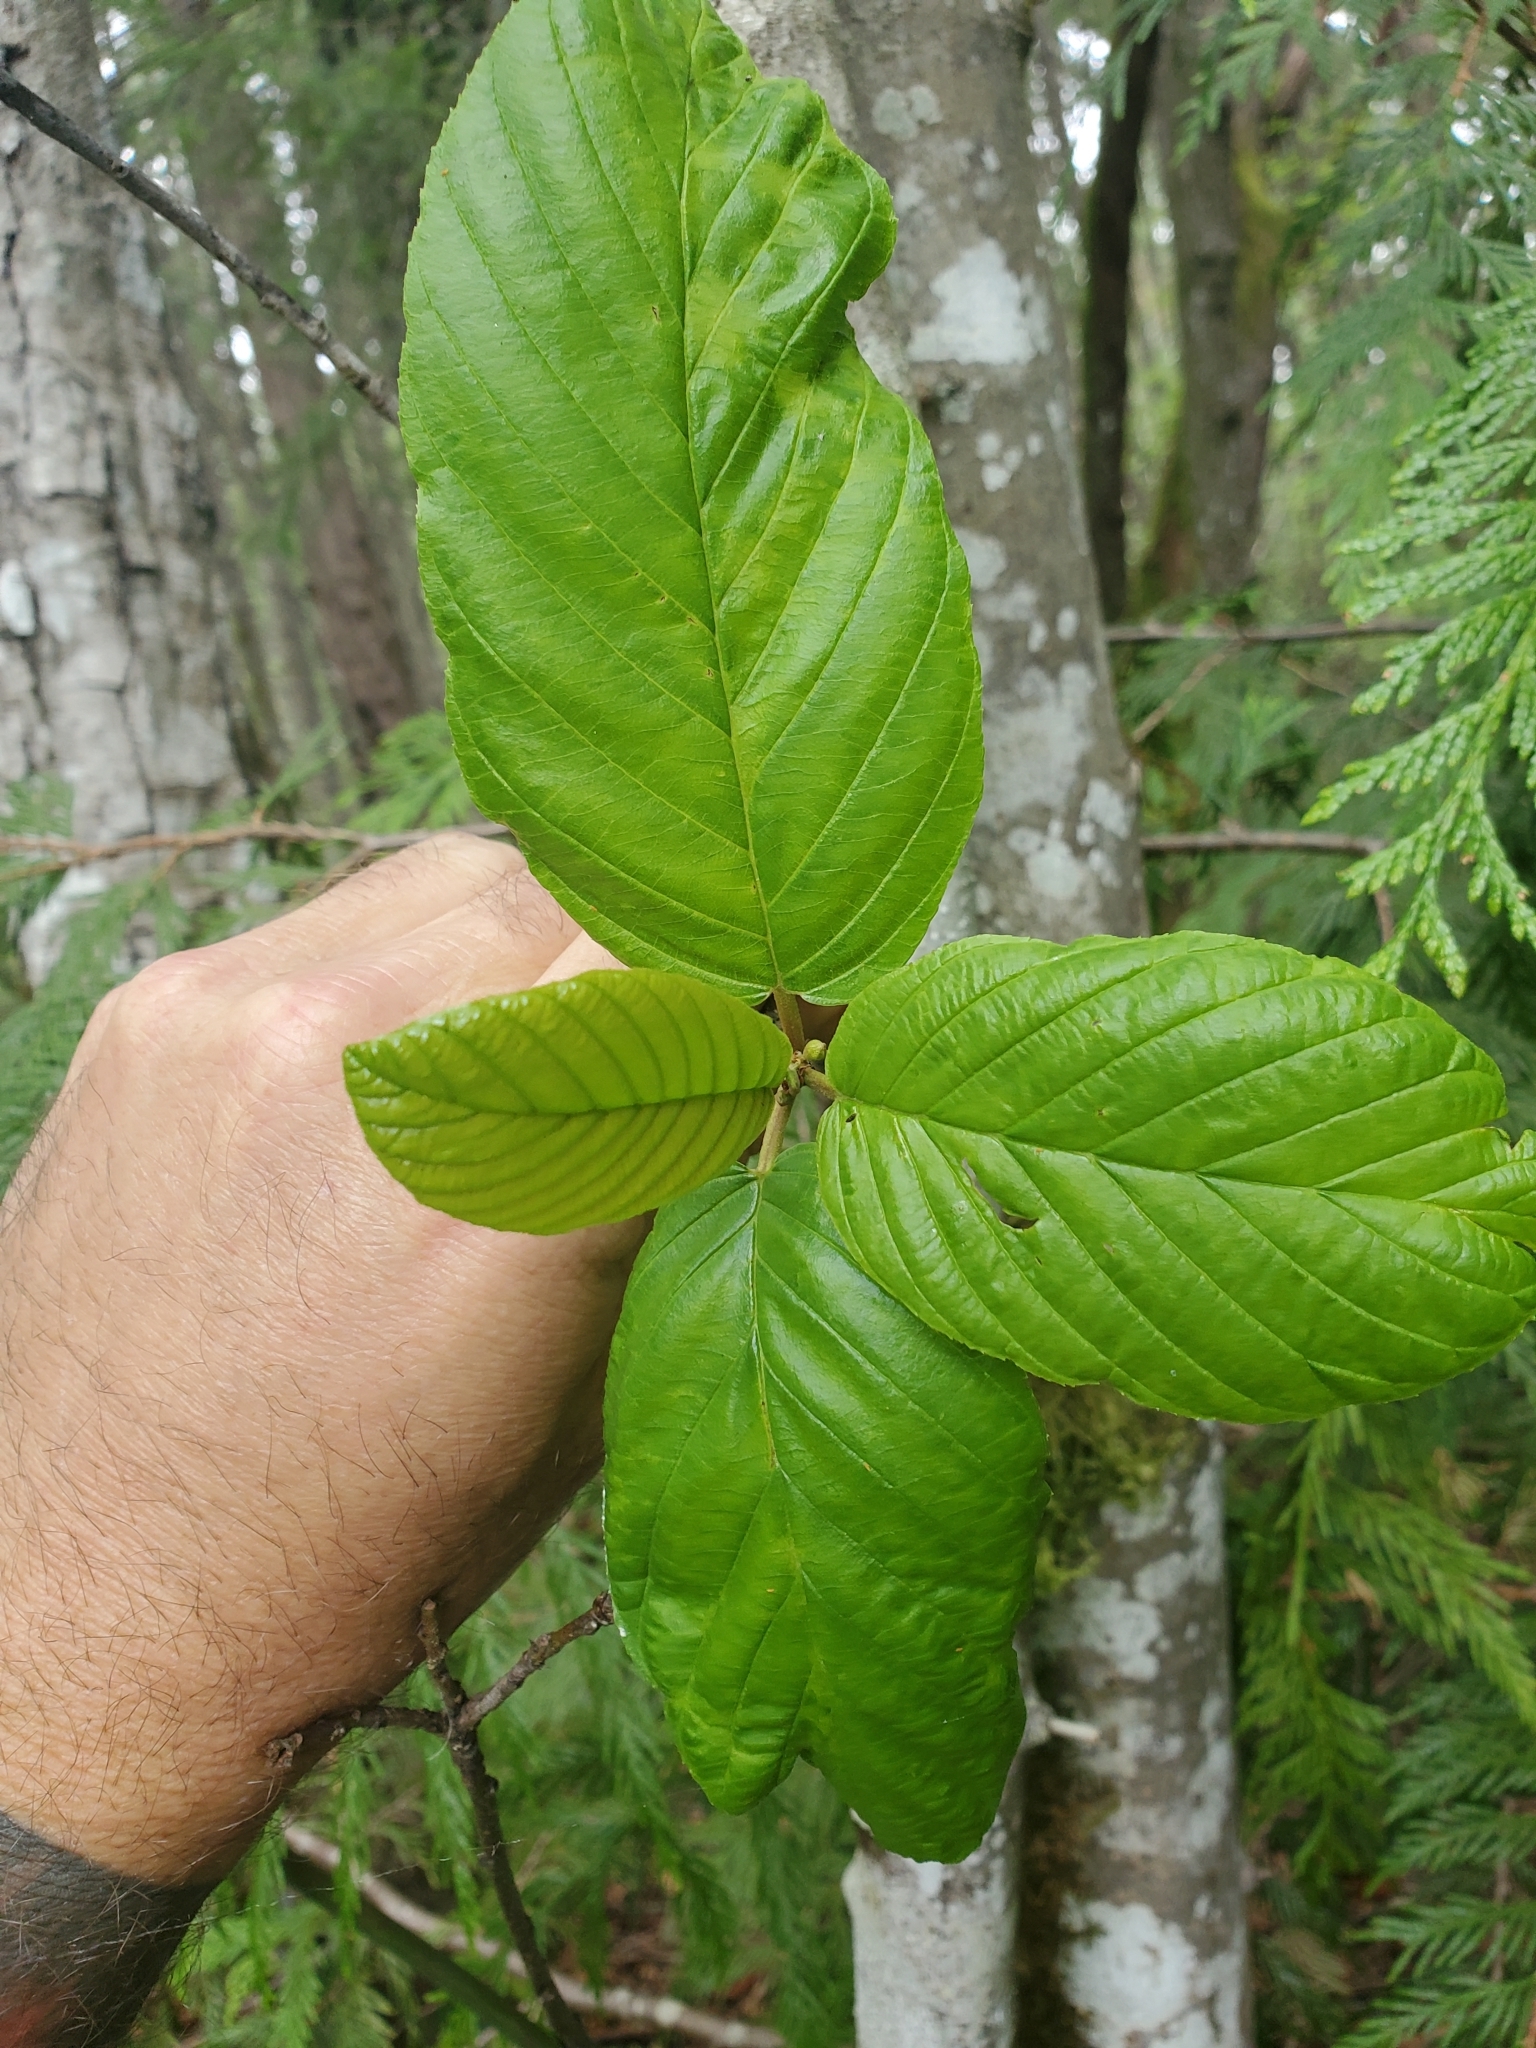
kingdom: Plantae
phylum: Tracheophyta
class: Magnoliopsida
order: Rosales
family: Rhamnaceae
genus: Frangula
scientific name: Frangula purshiana
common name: Cascara buckthorn
